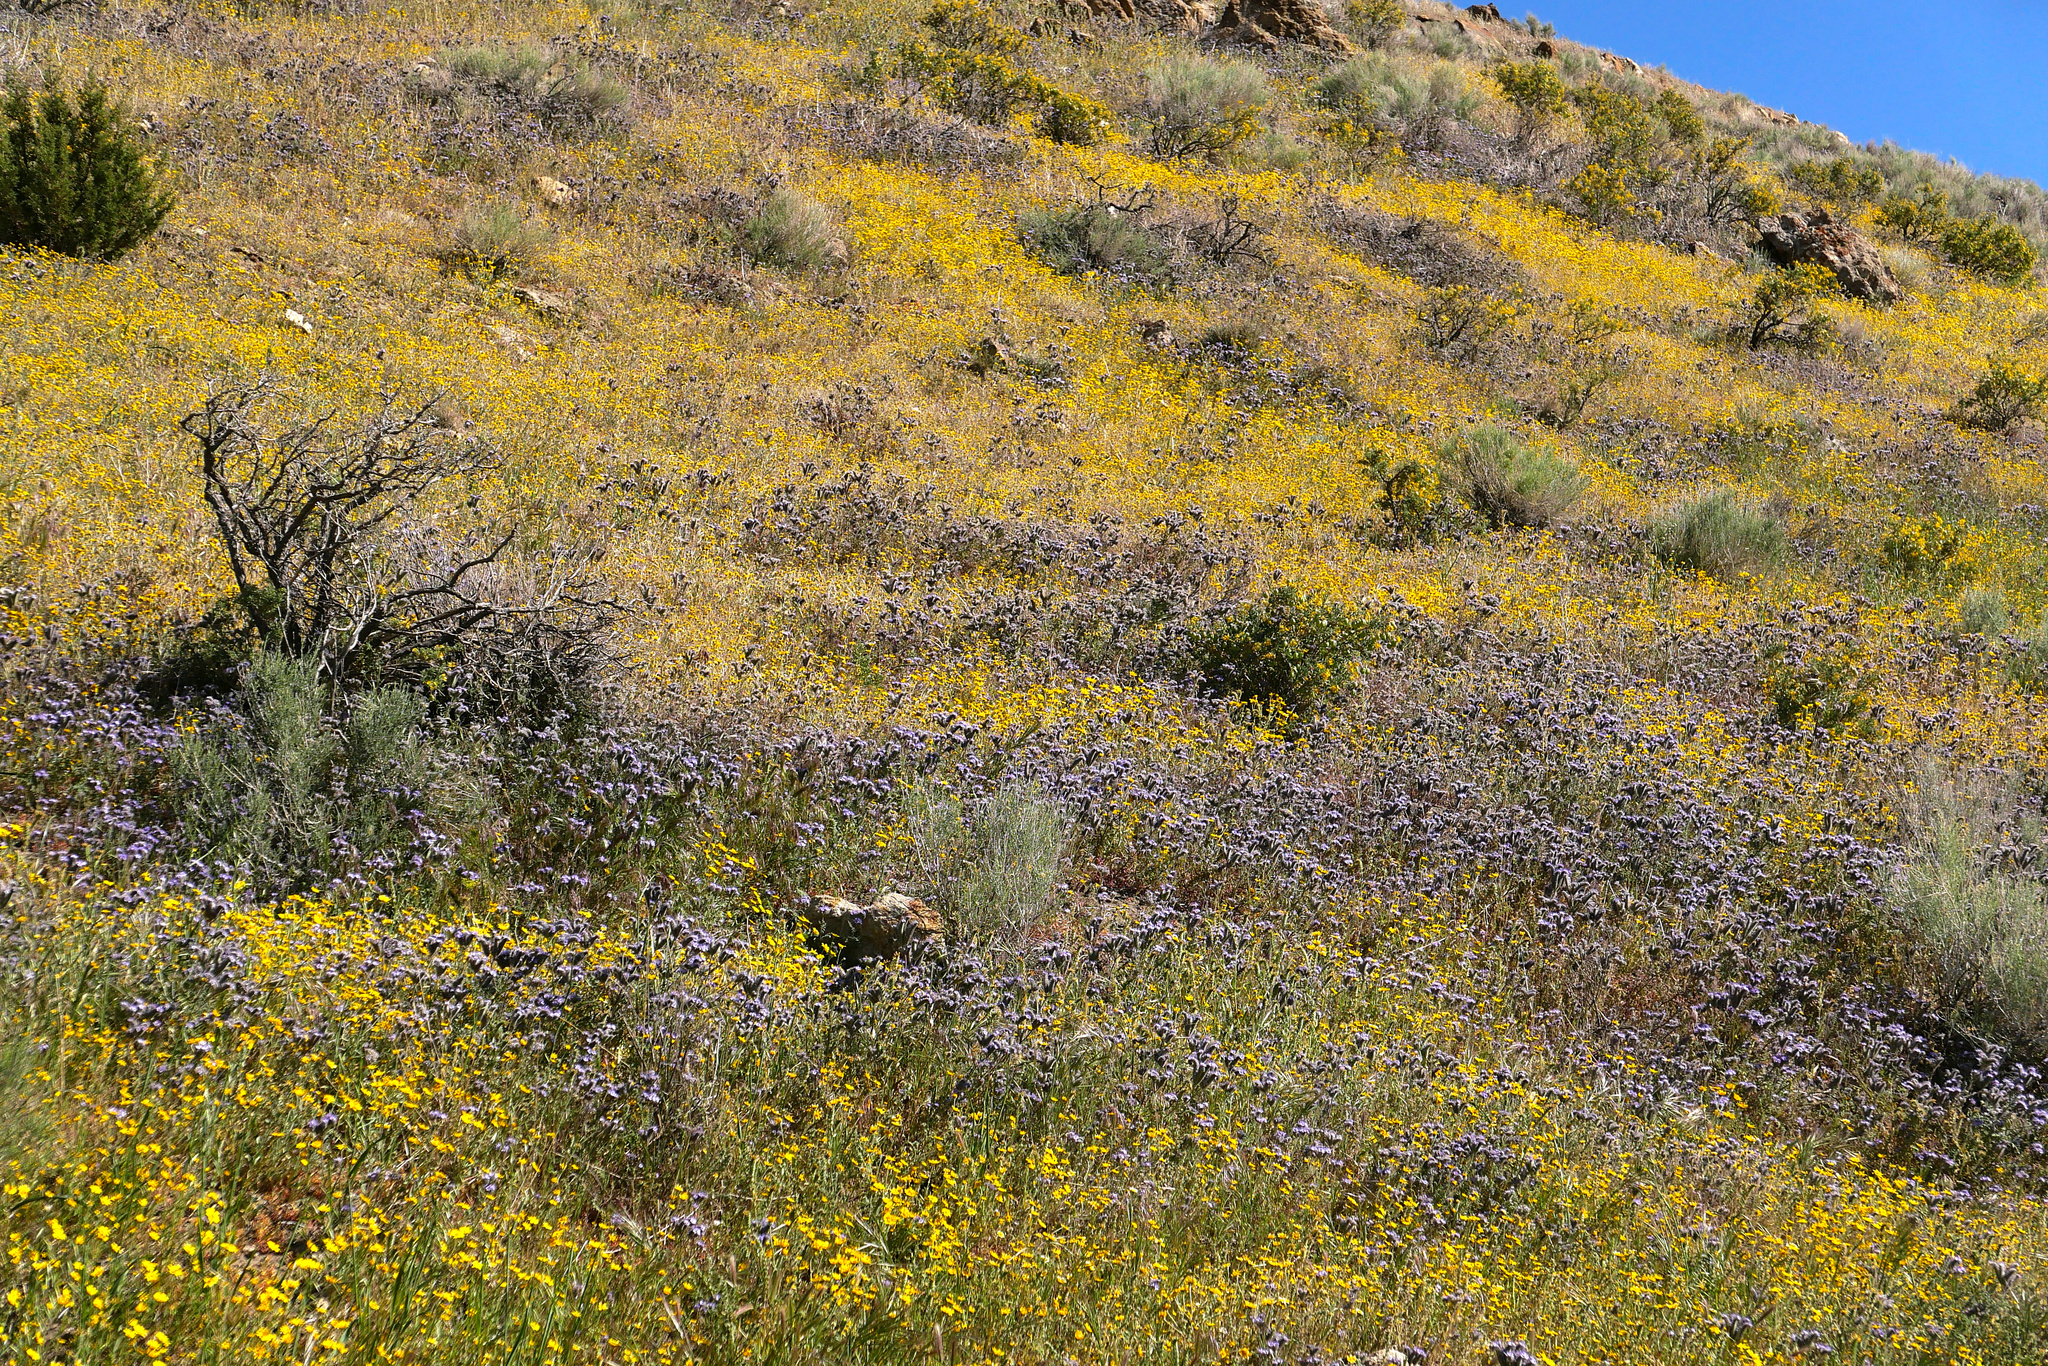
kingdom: Plantae
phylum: Tracheophyta
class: Magnoliopsida
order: Asterales
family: Asteraceae
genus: Monolopia
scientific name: Monolopia lanceolata
